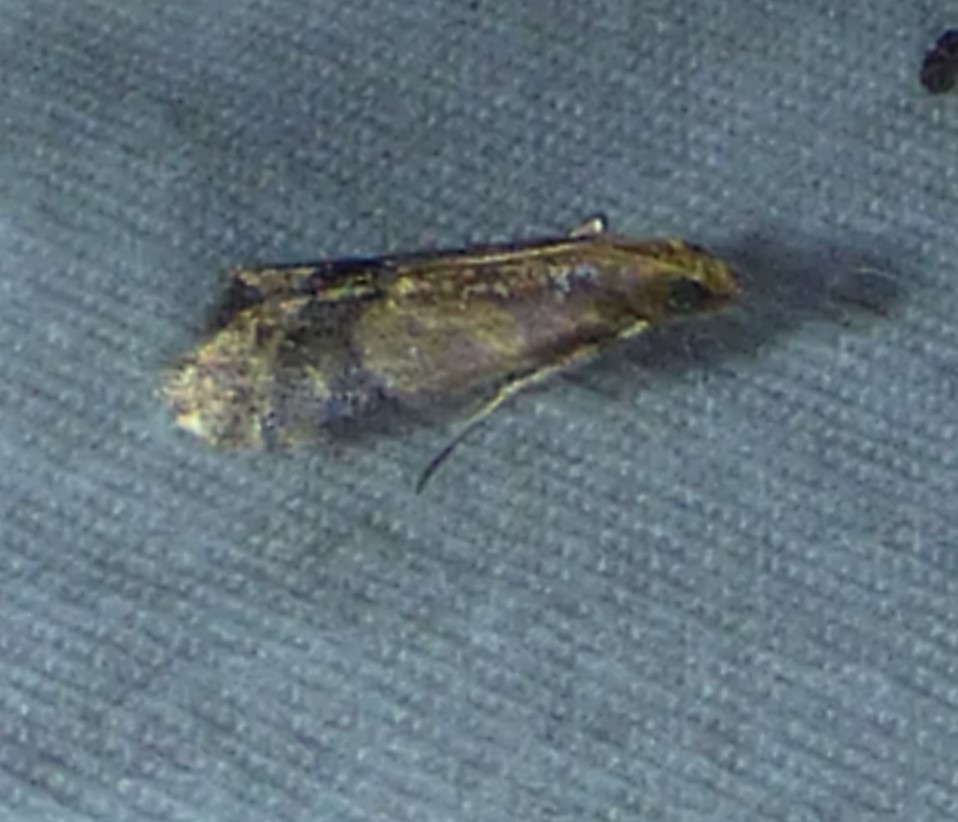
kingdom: Animalia
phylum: Arthropoda
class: Insecta
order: Lepidoptera
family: Pyralidae
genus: Eulogia
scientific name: Eulogia ochrifrontella
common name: Broad-banded eulogia moth
